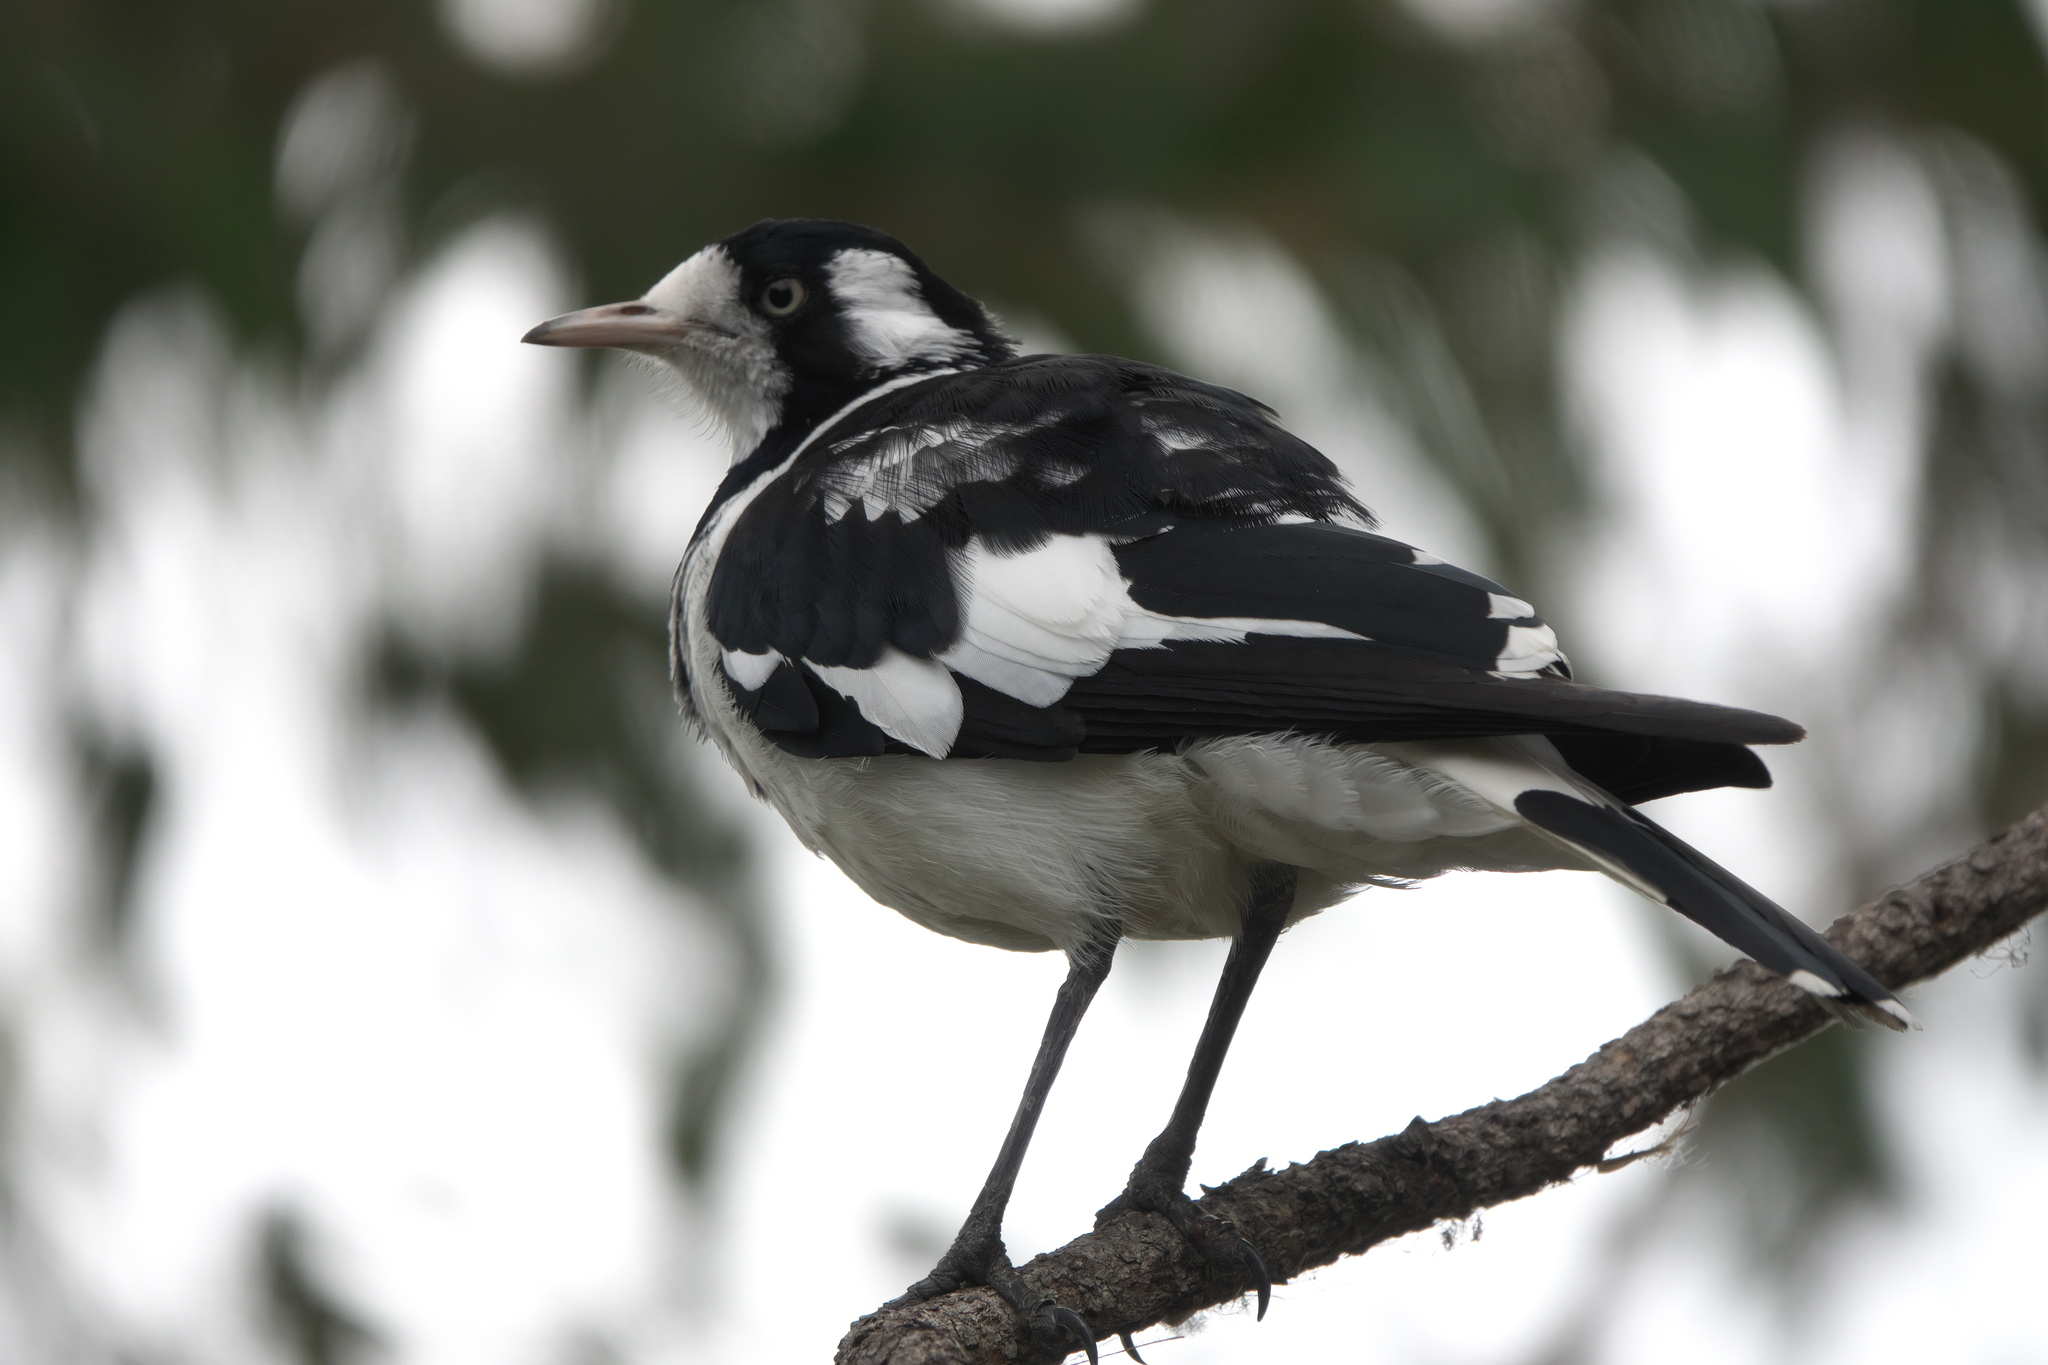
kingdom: Animalia
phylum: Chordata
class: Aves
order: Passeriformes
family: Monarchidae
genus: Grallina
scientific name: Grallina cyanoleuca
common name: Magpie-lark
